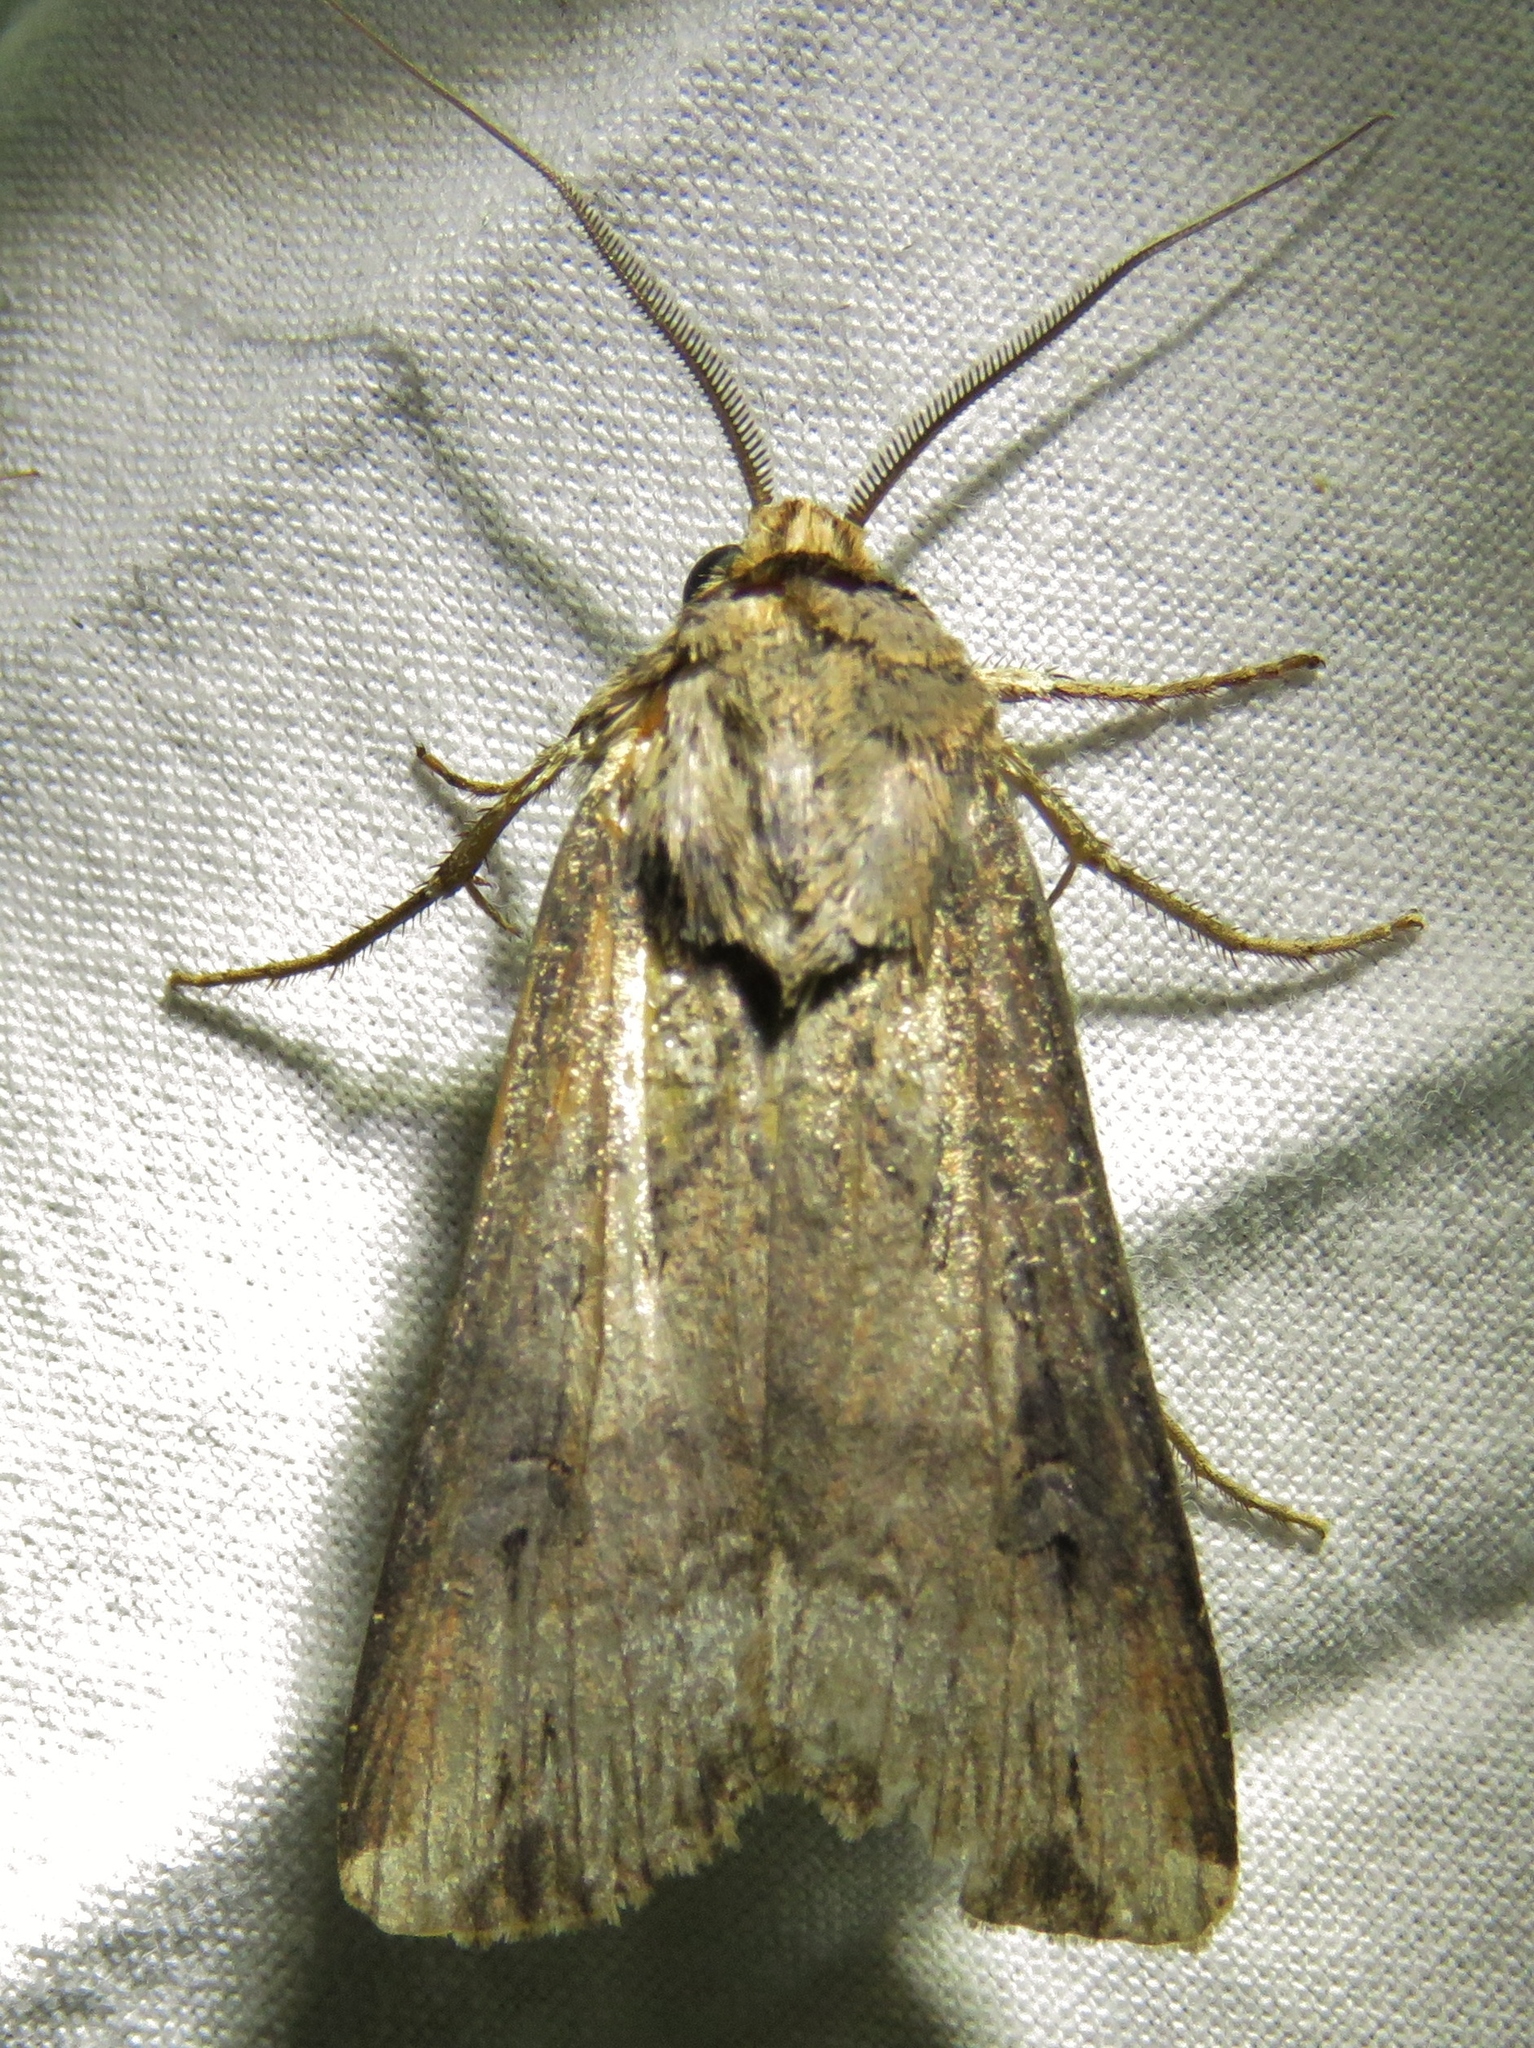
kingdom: Animalia
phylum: Arthropoda
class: Insecta
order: Lepidoptera
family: Noctuidae
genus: Agrotis
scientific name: Agrotis ipsilon
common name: Dark sword-grass
